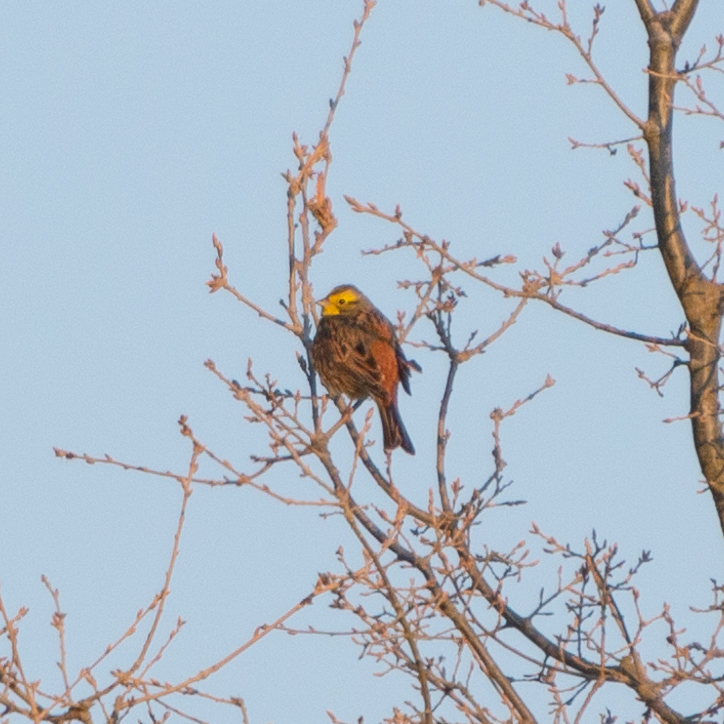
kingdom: Animalia
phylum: Chordata
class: Aves
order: Passeriformes
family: Emberizidae
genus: Emberiza
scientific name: Emberiza citrinella
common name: Yellowhammer
